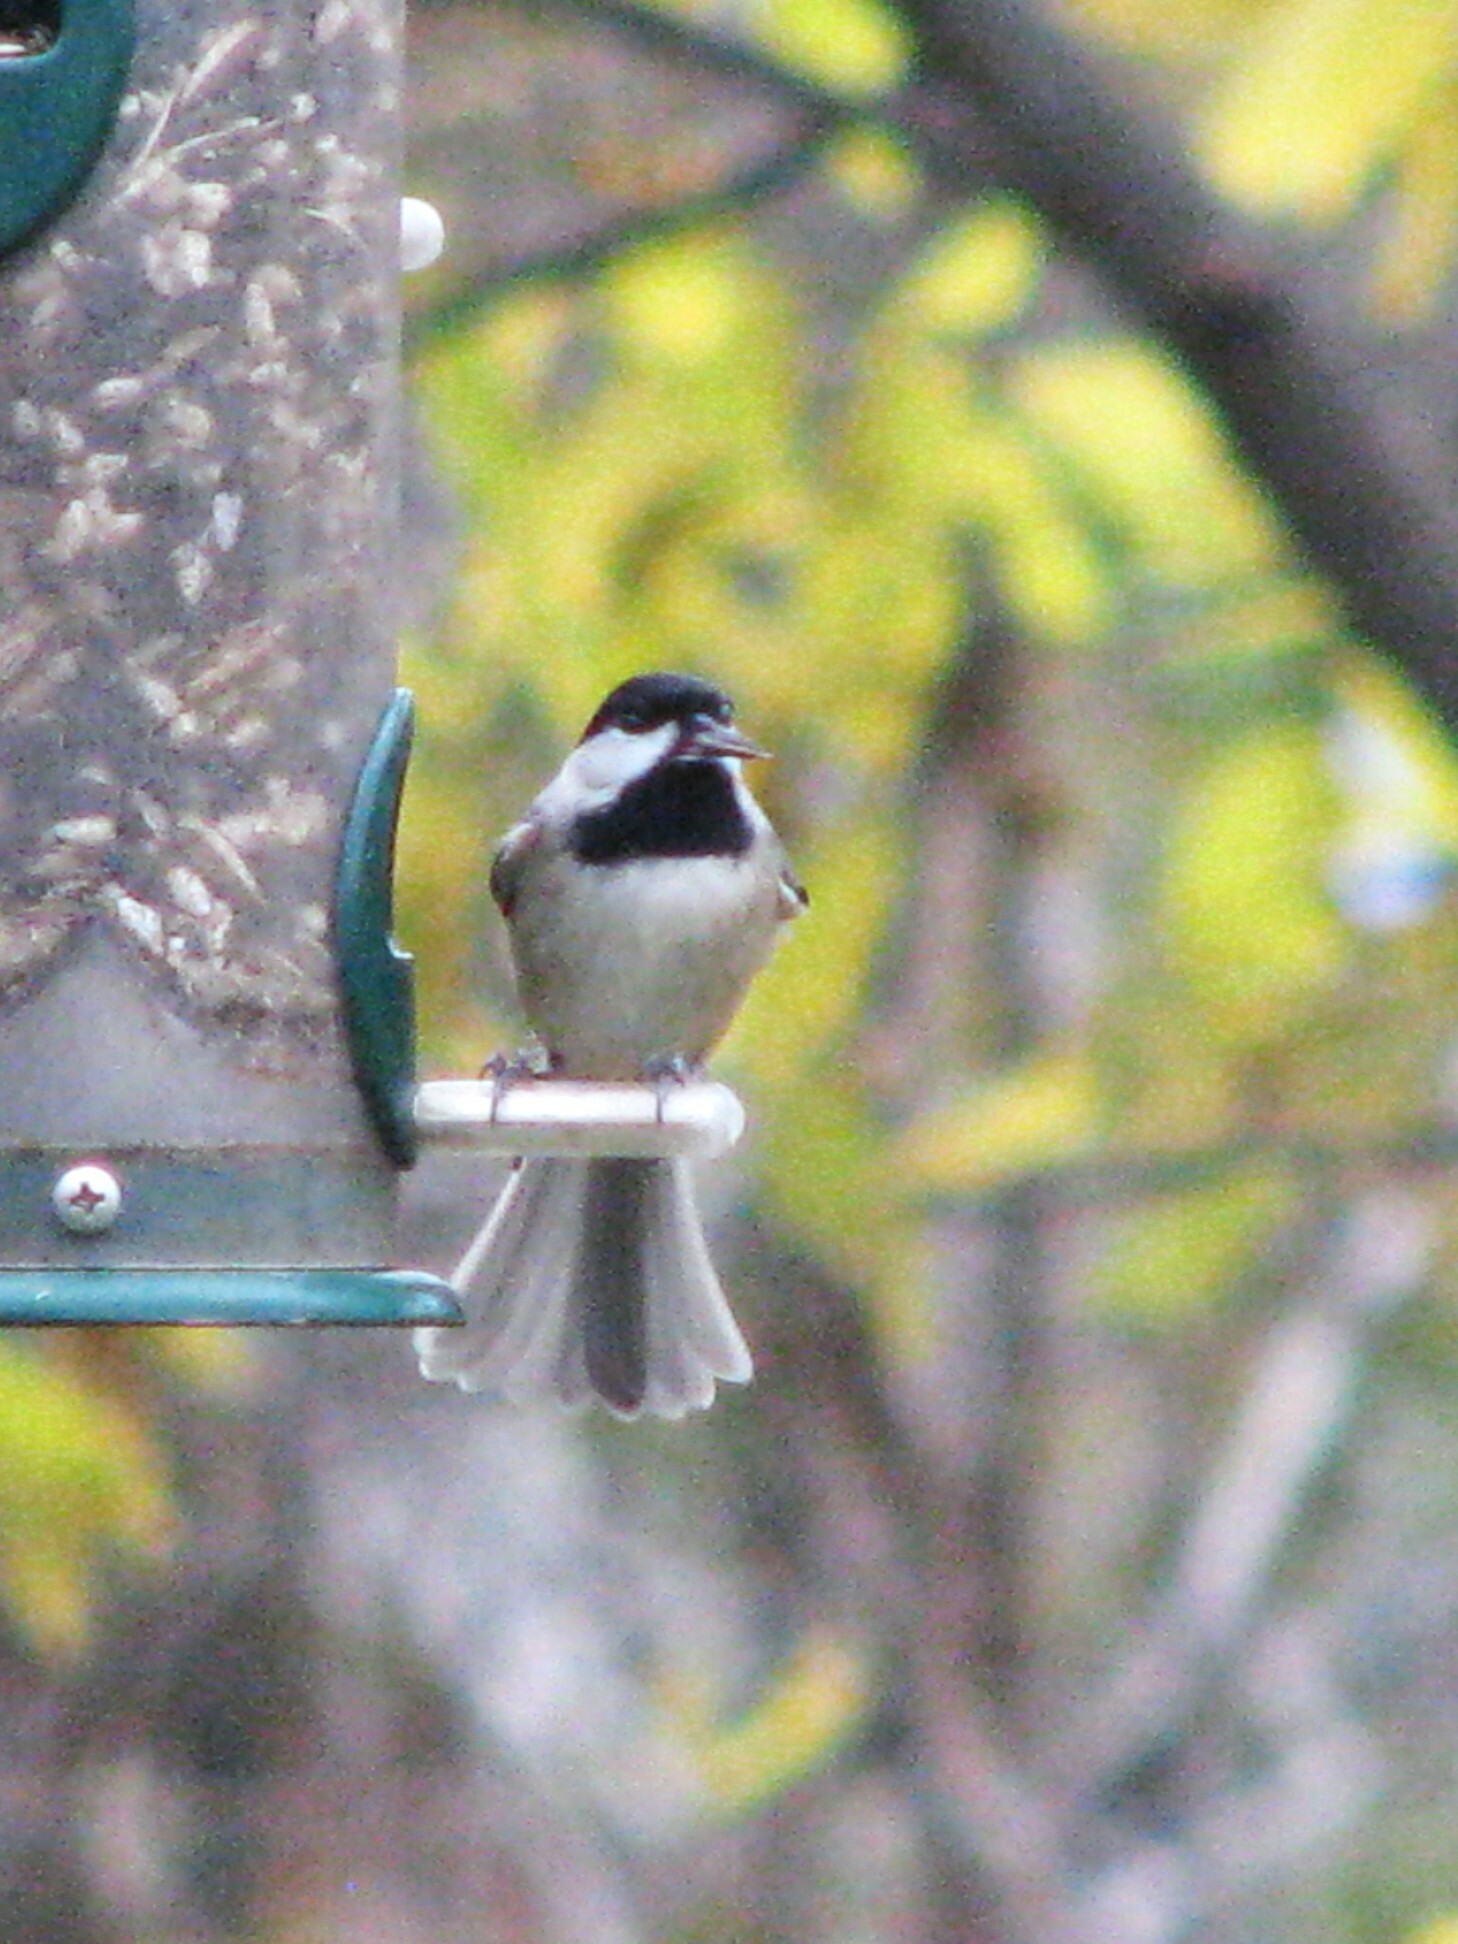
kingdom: Animalia
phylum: Chordata
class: Aves
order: Passeriformes
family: Paridae
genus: Poecile
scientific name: Poecile carolinensis
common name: Carolina chickadee
